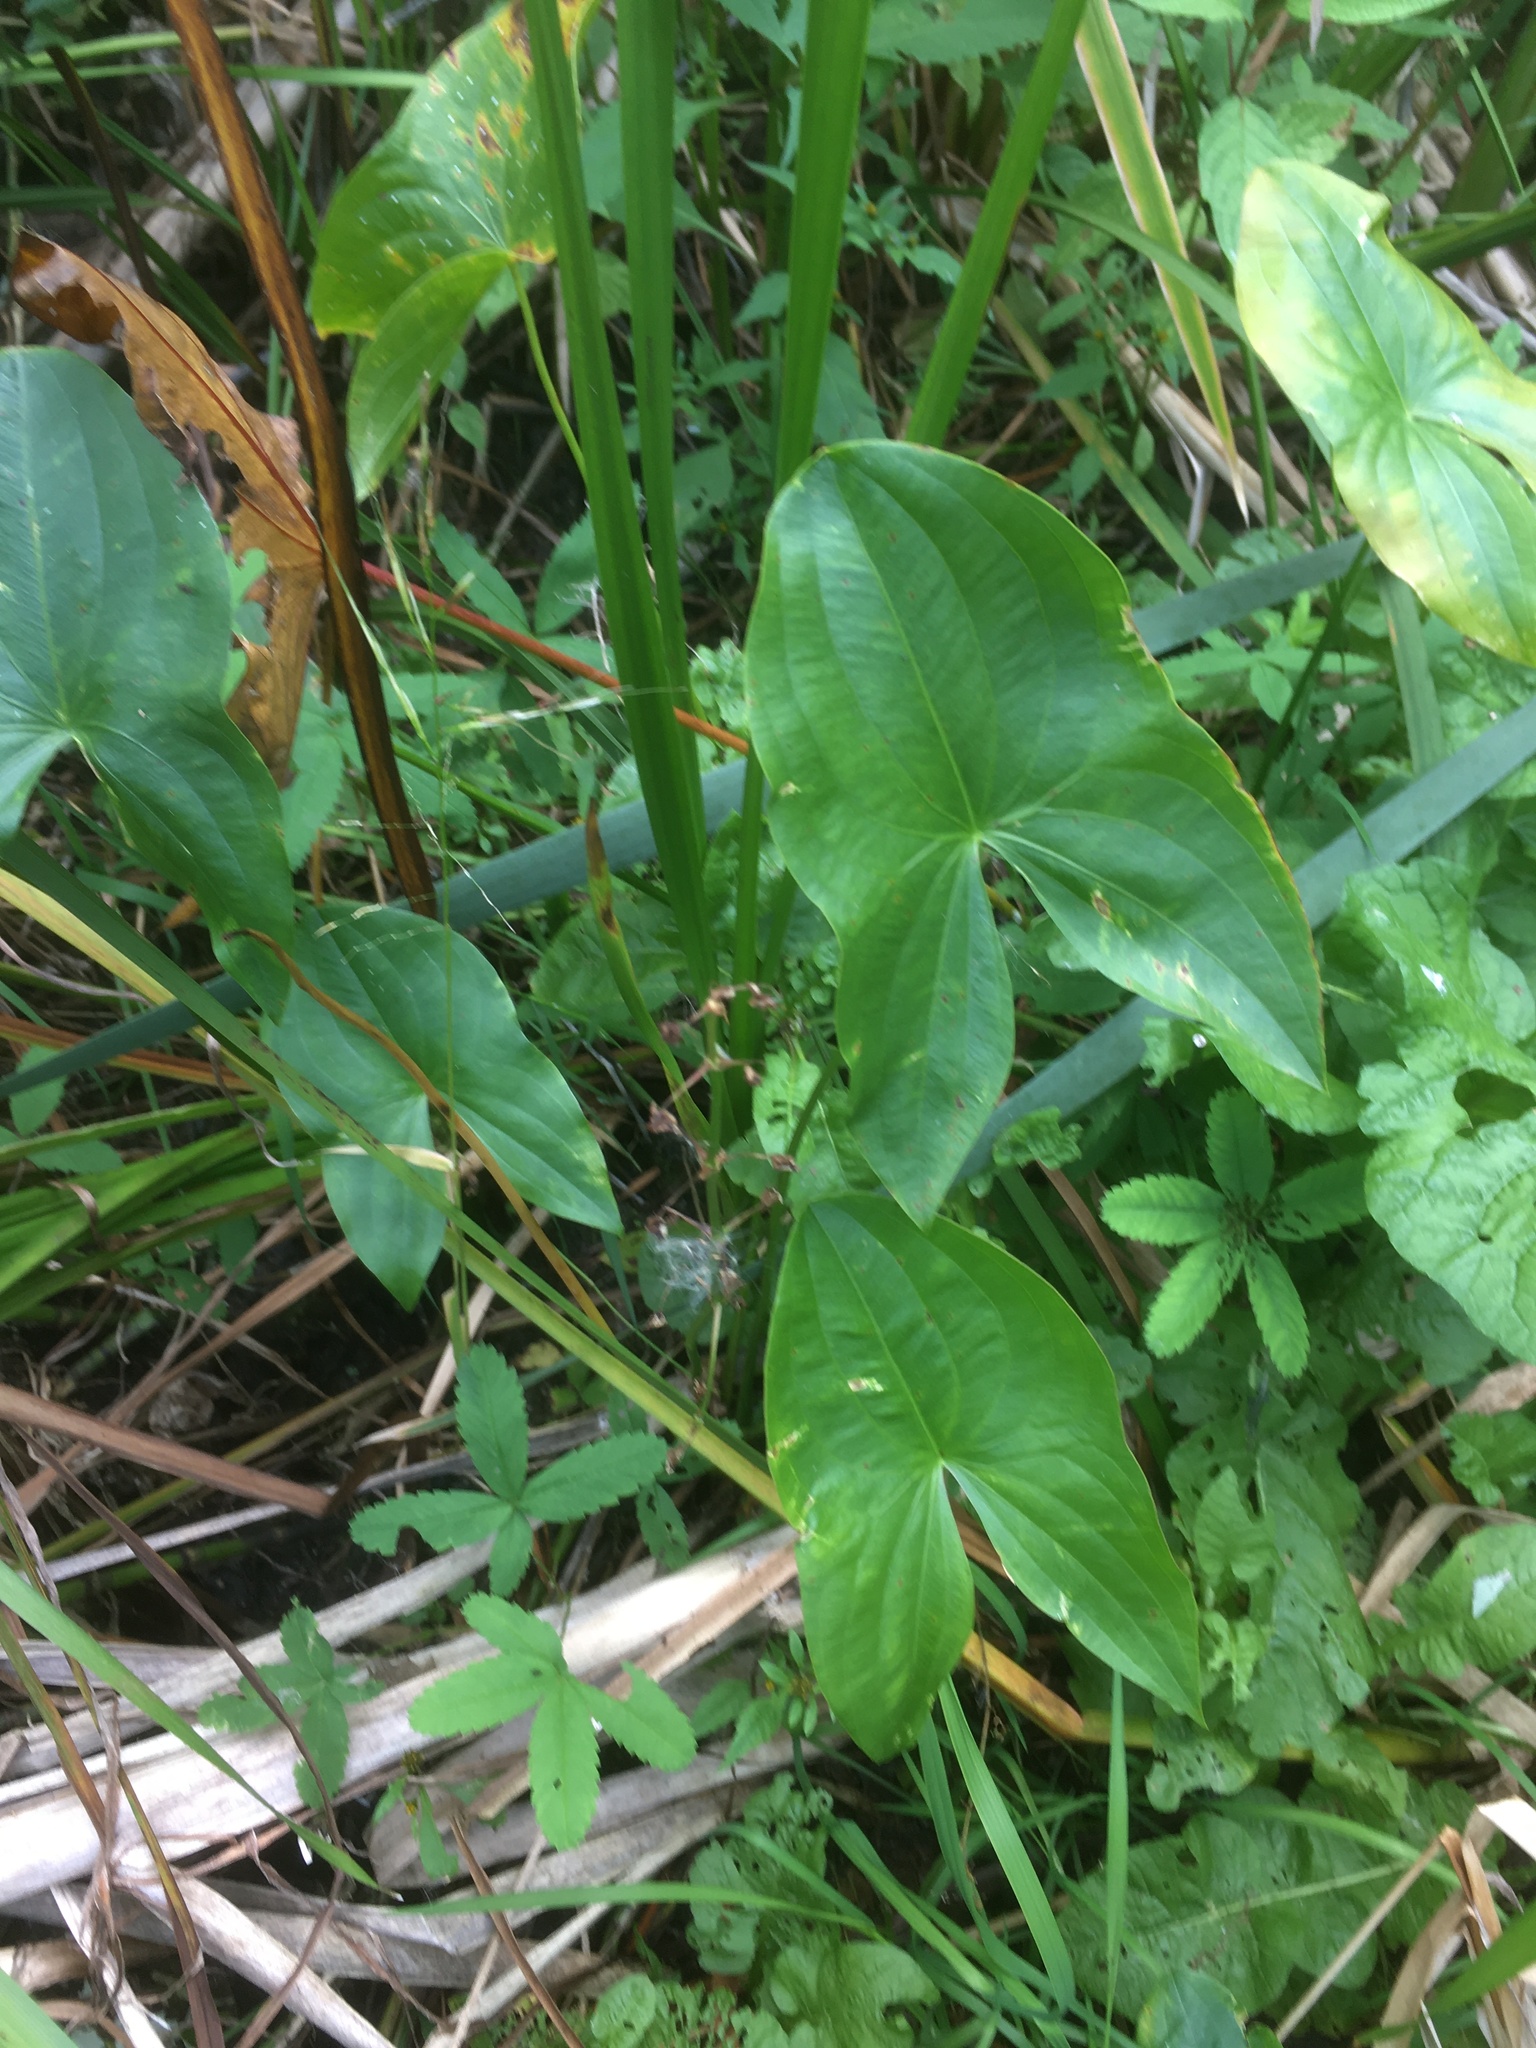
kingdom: Plantae
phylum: Tracheophyta
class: Liliopsida
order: Alismatales
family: Alismataceae
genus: Sagittaria
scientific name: Sagittaria latifolia
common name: Duck-potato
